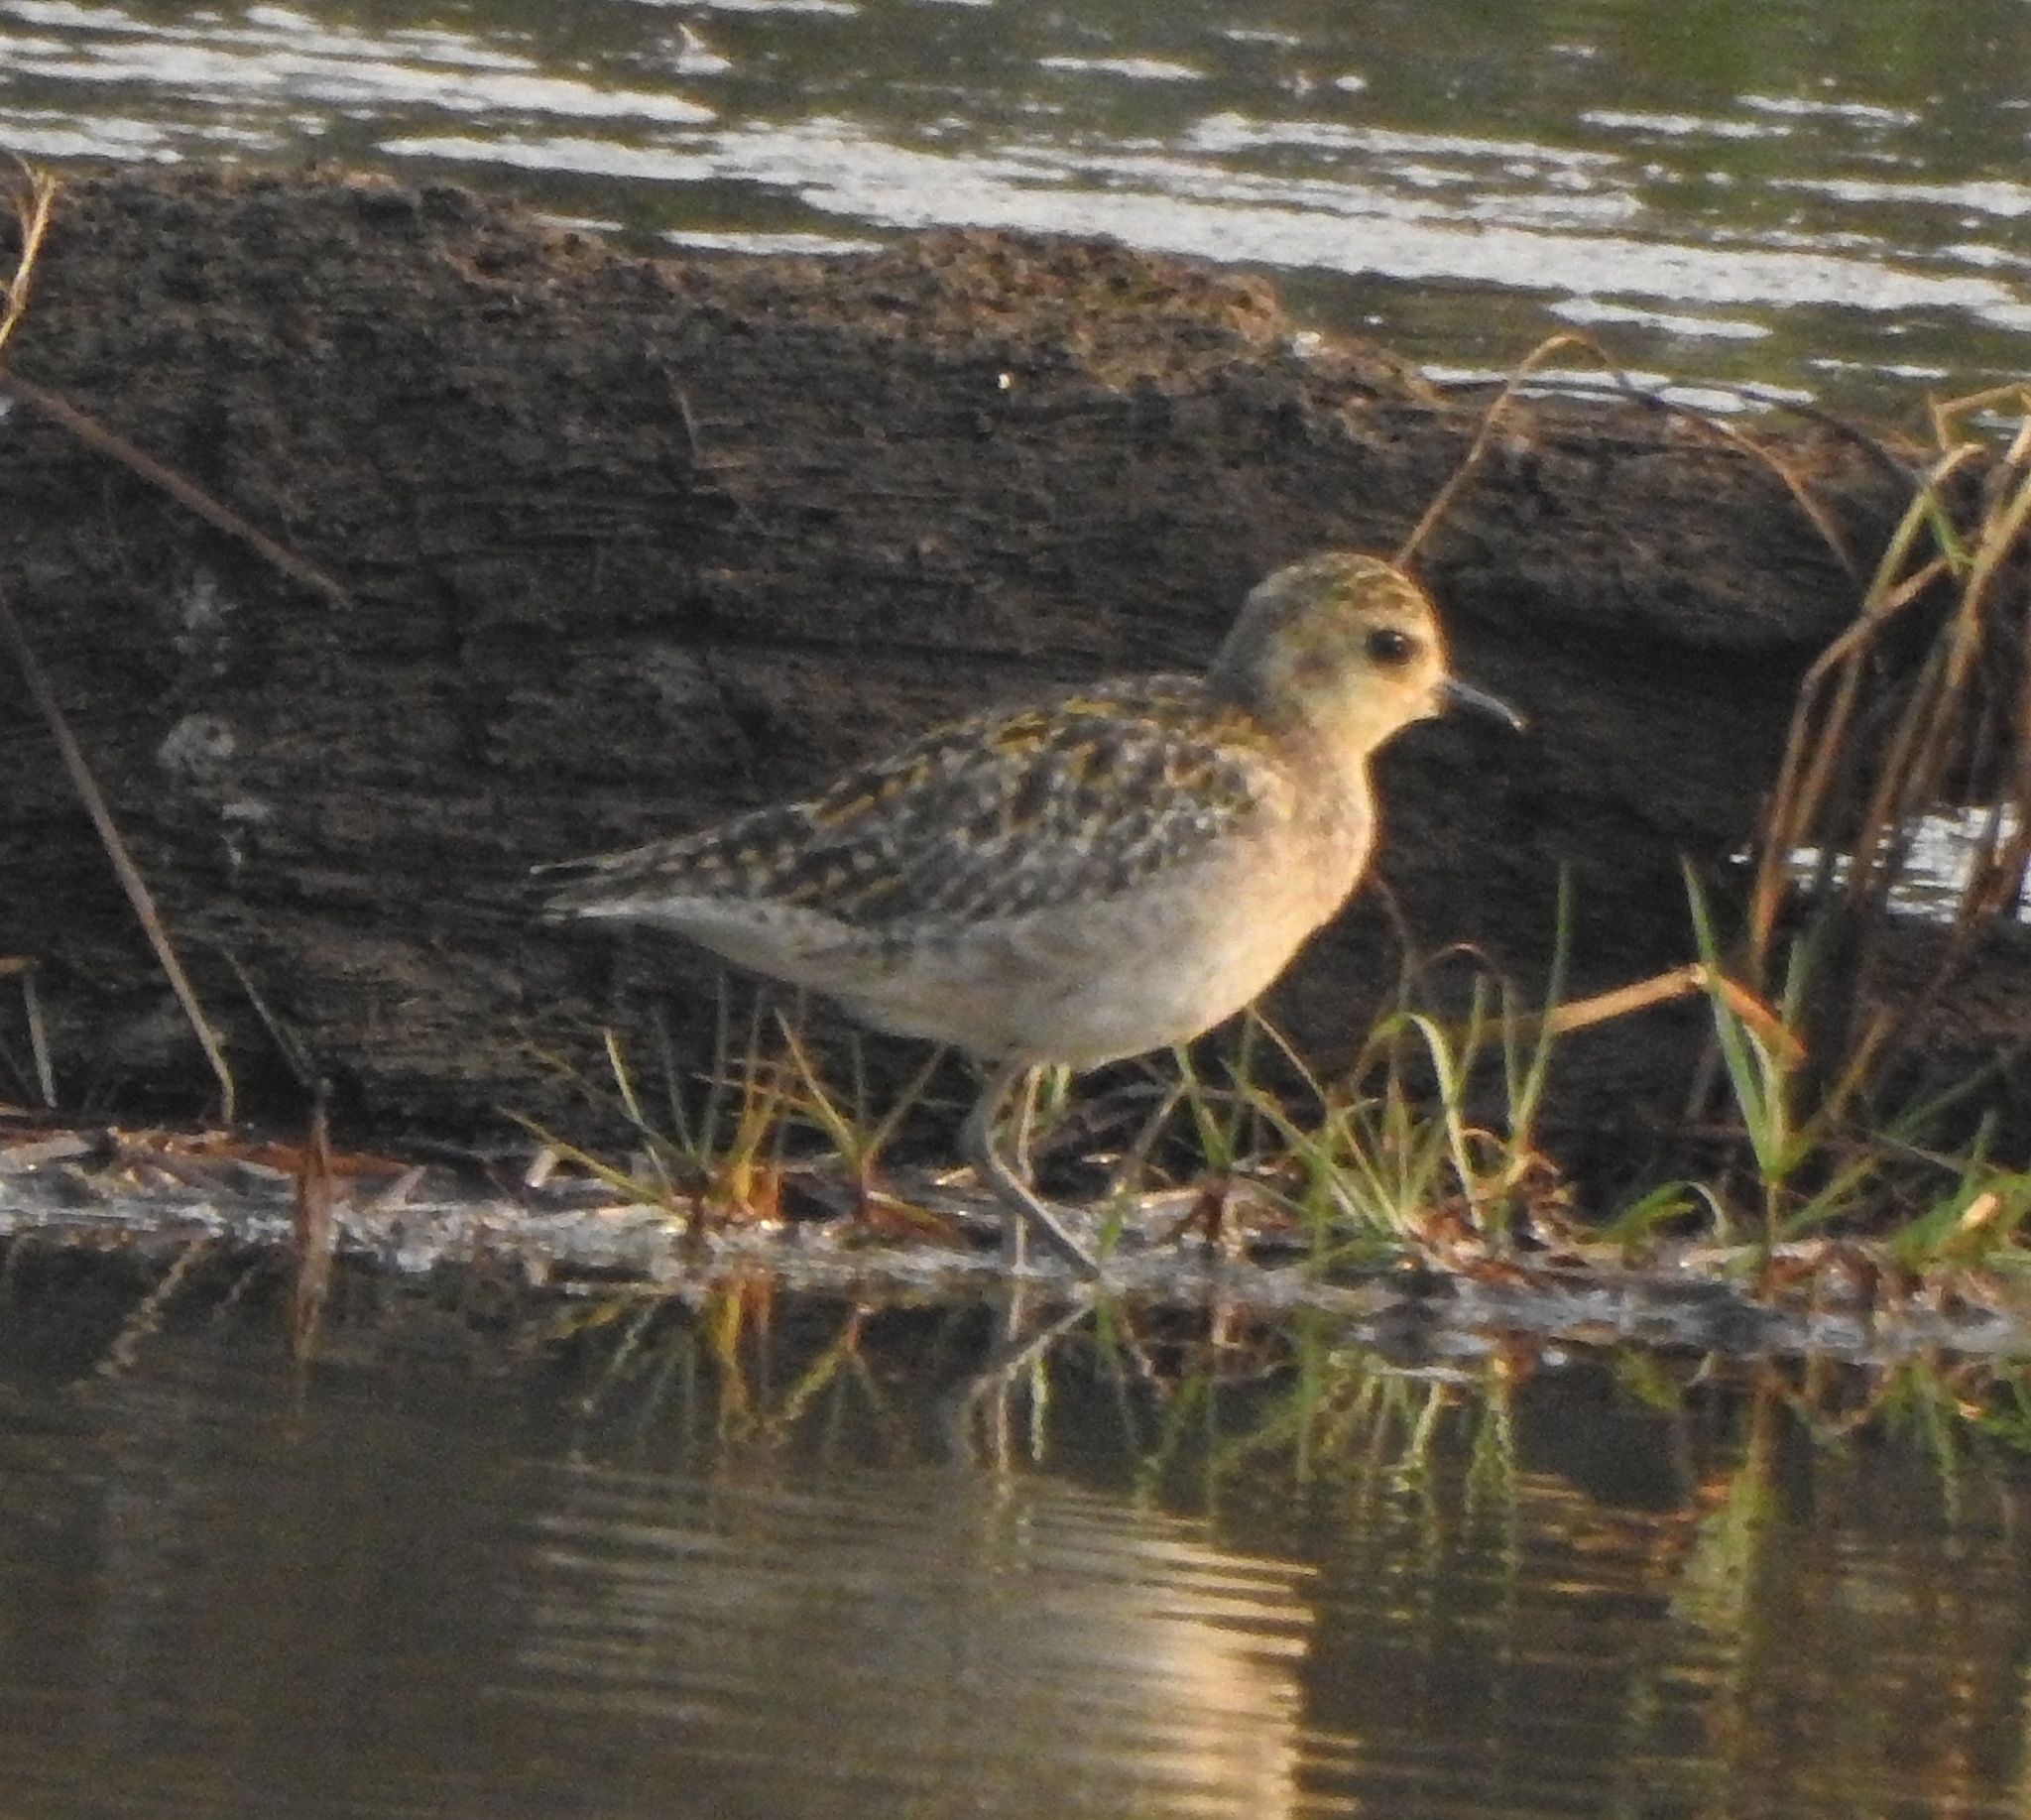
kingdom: Animalia
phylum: Chordata
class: Aves
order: Charadriiformes
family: Charadriidae
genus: Pluvialis
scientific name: Pluvialis fulva
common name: Pacific golden plover
